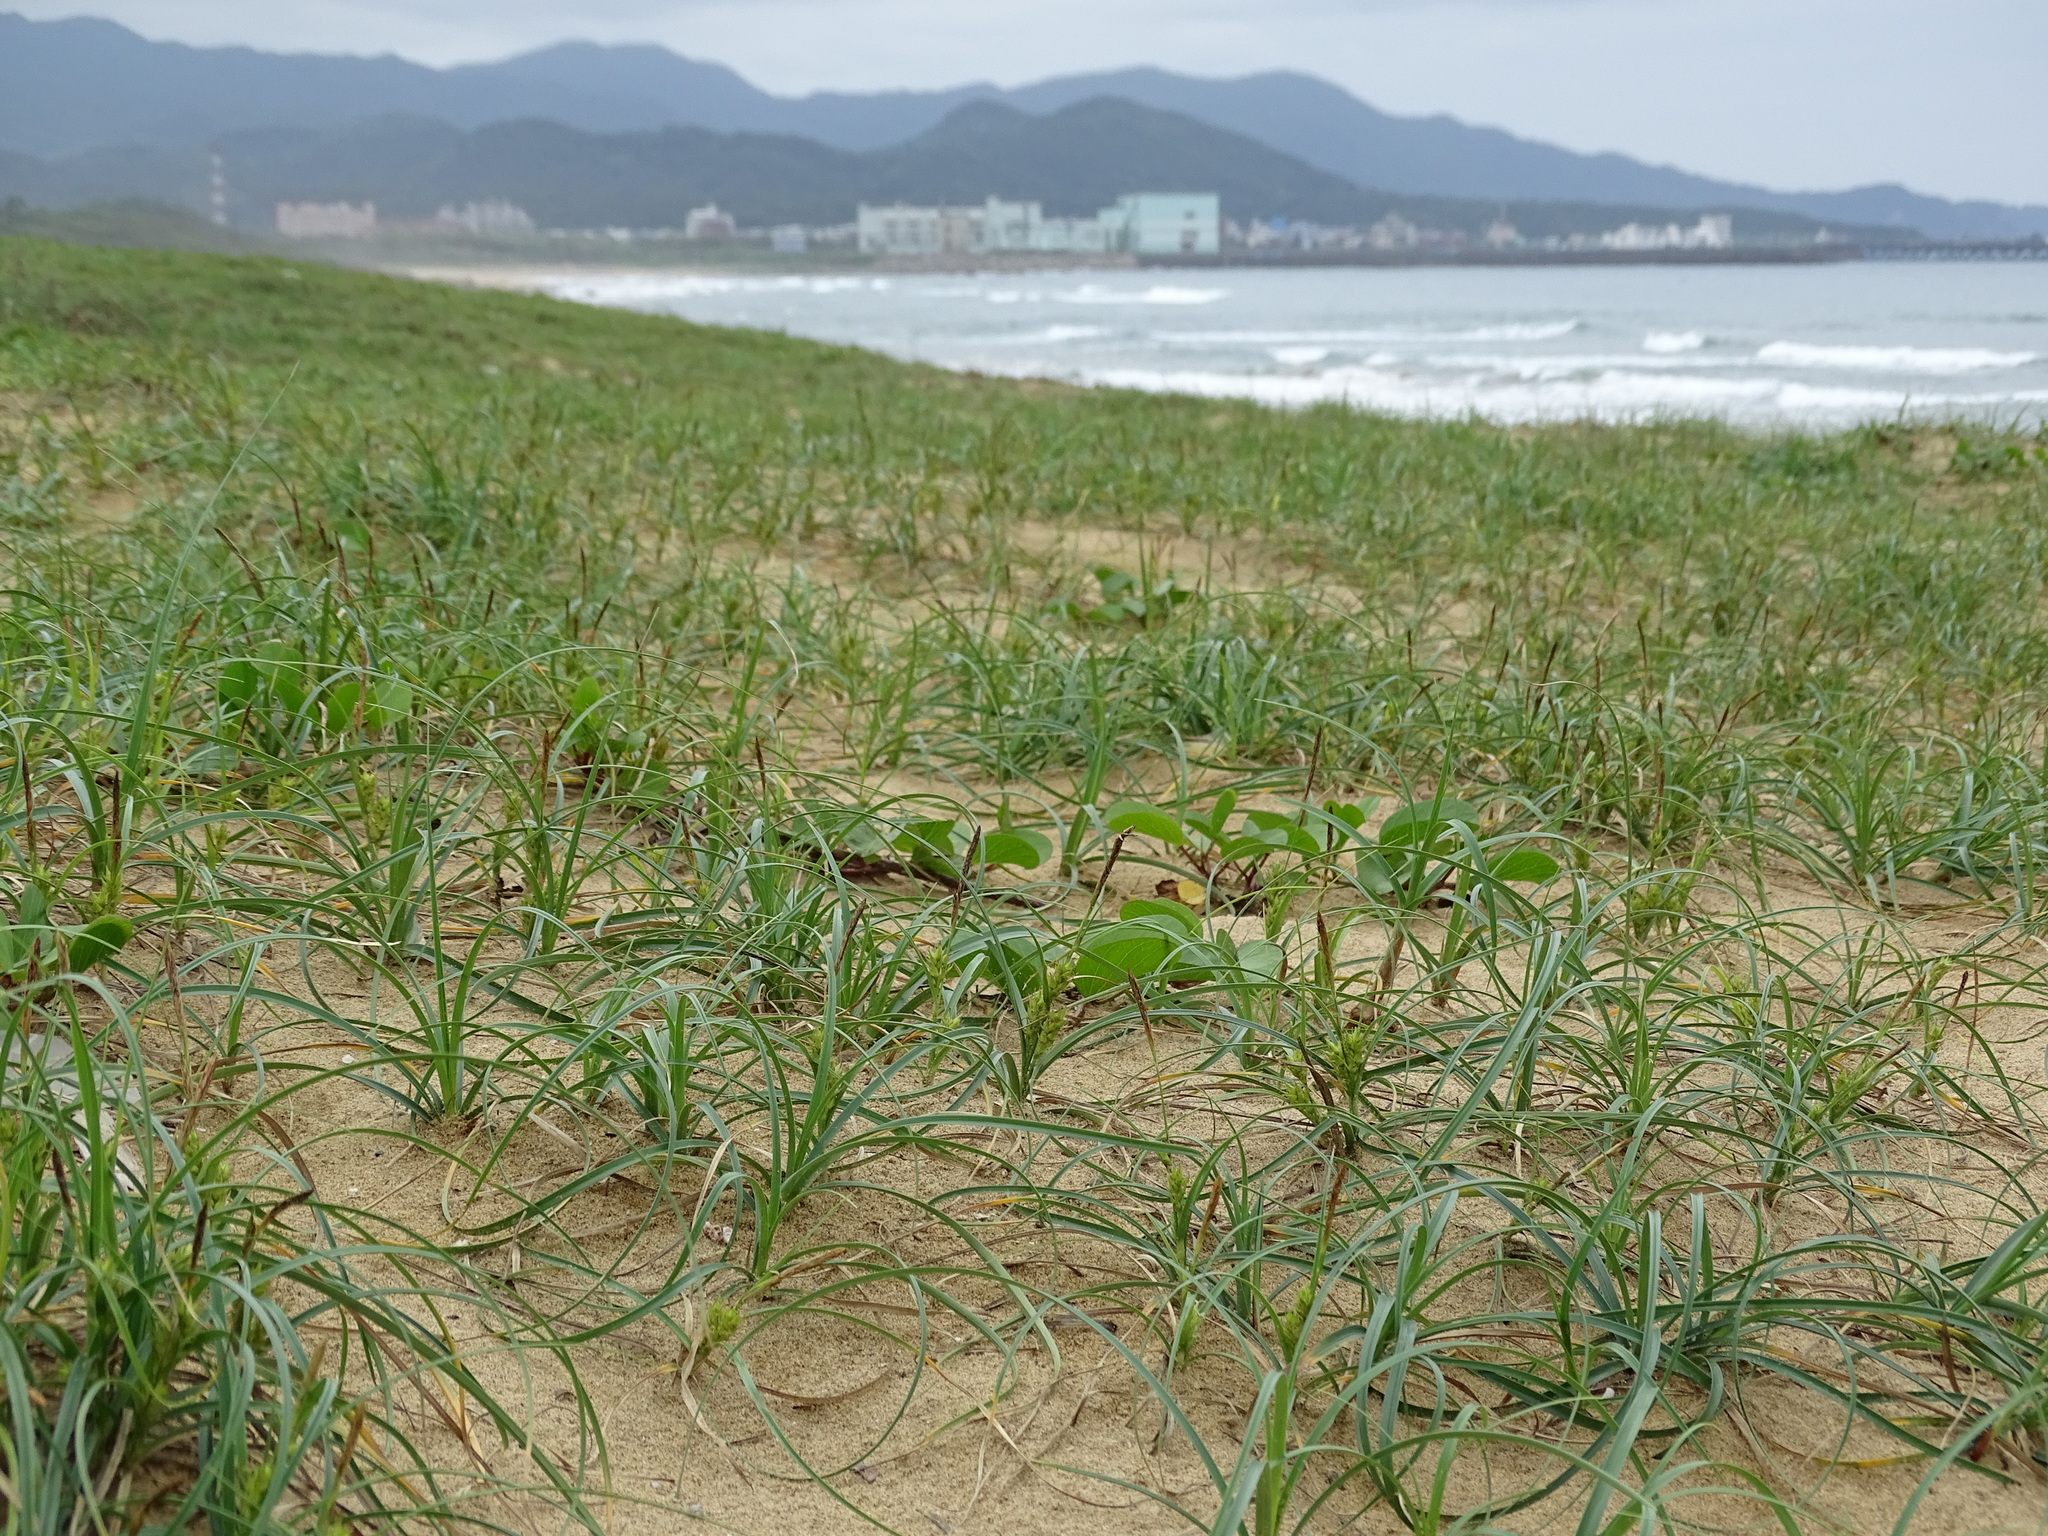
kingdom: Plantae
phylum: Tracheophyta
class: Liliopsida
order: Poales
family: Cyperaceae
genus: Carex
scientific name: Carex pumila
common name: Dwarf sedge
